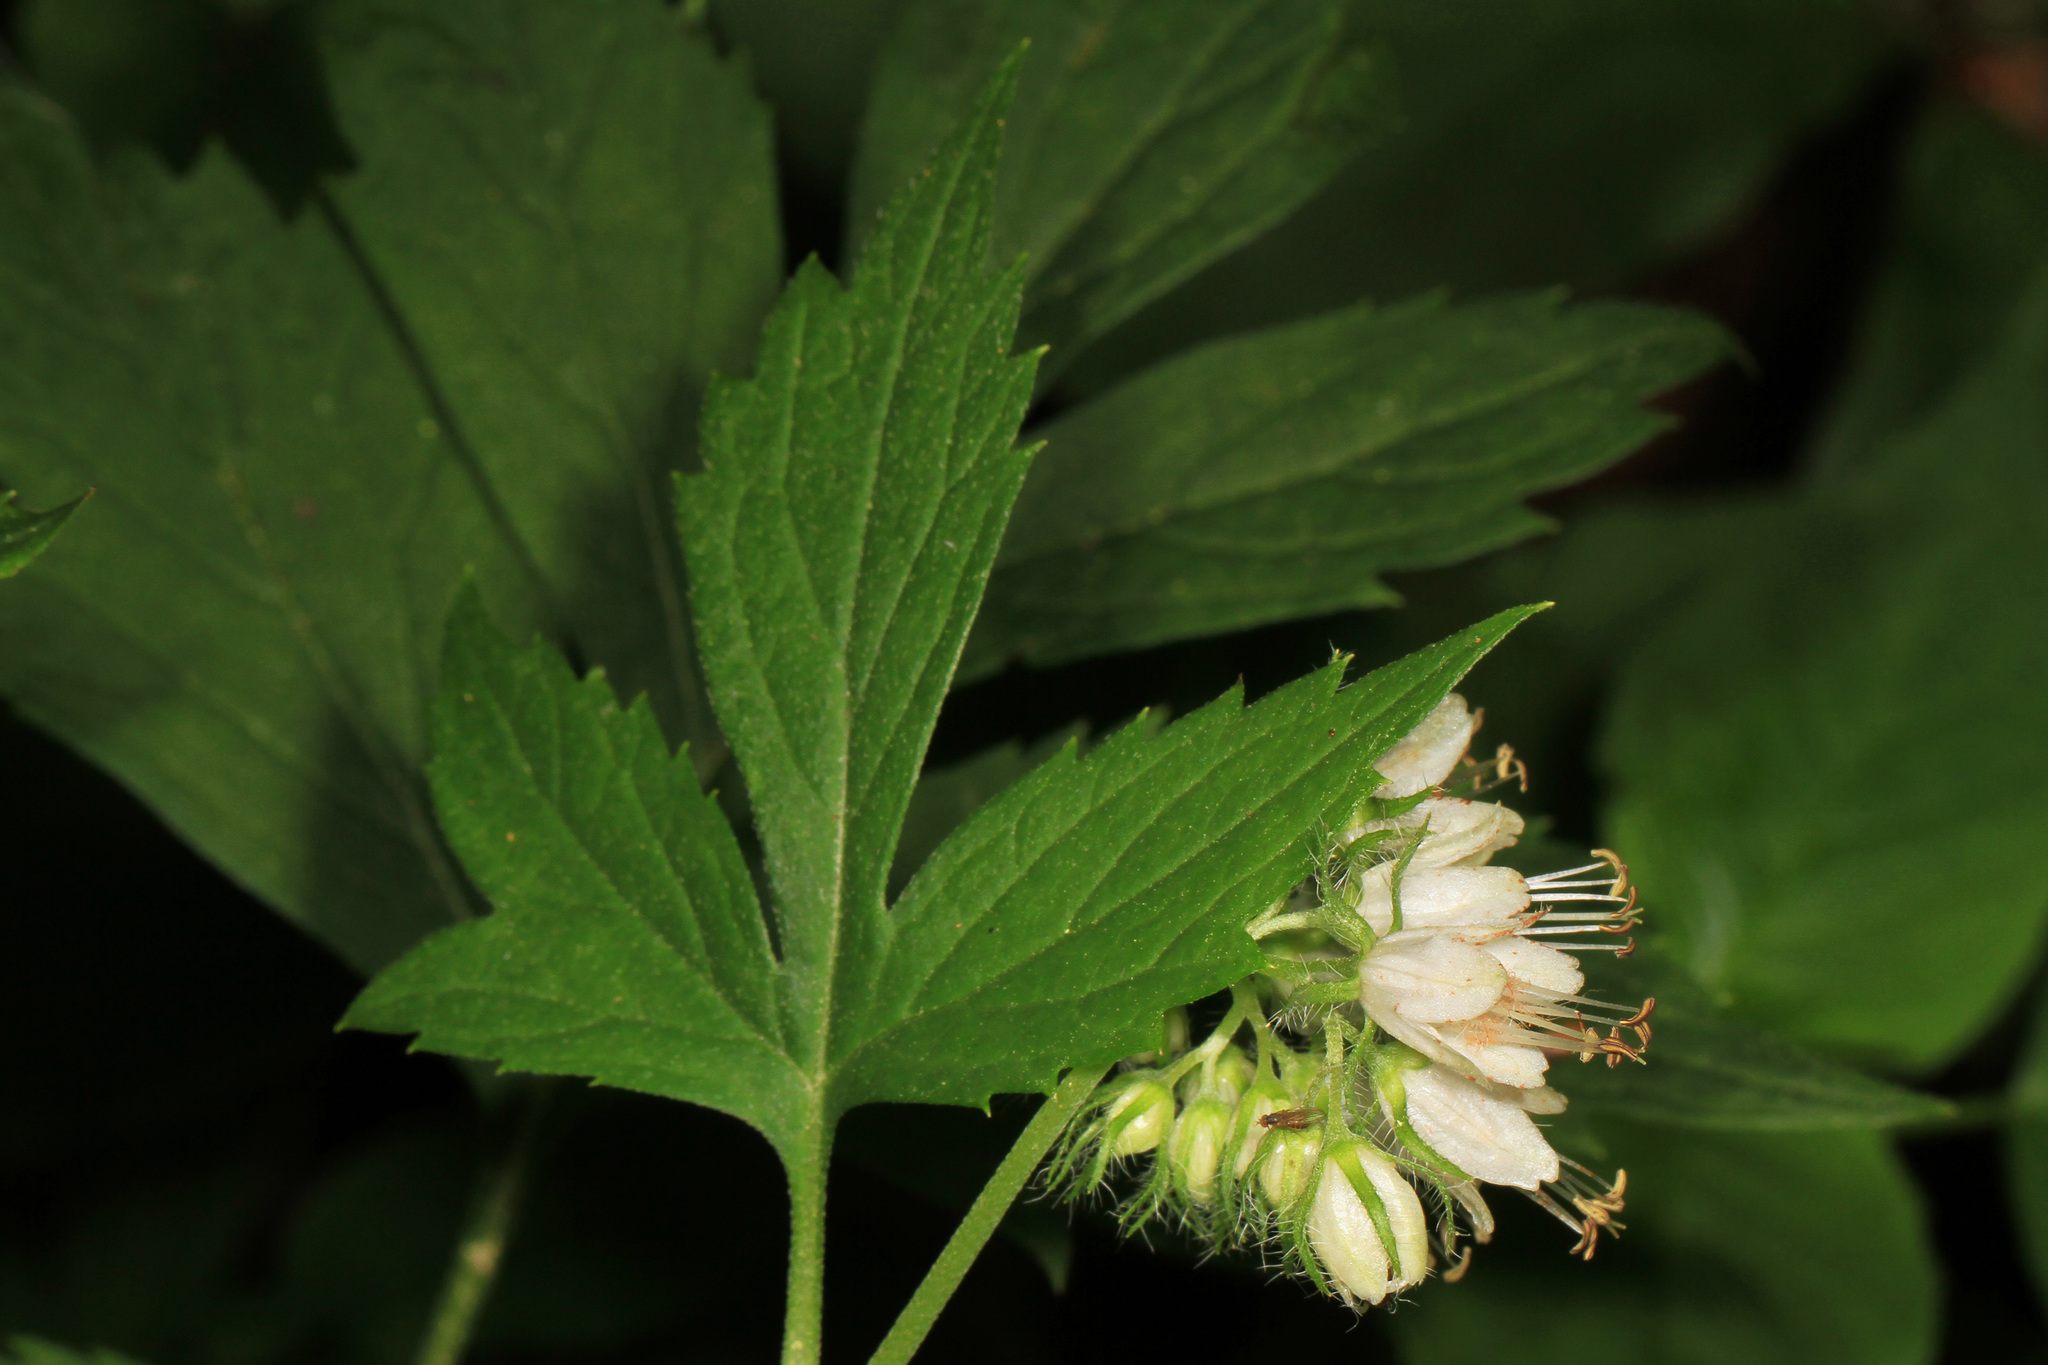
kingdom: Plantae
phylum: Tracheophyta
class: Magnoliopsida
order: Boraginales
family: Hydrophyllaceae
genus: Hydrophyllum
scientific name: Hydrophyllum virginianum
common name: Virginia waterleaf
